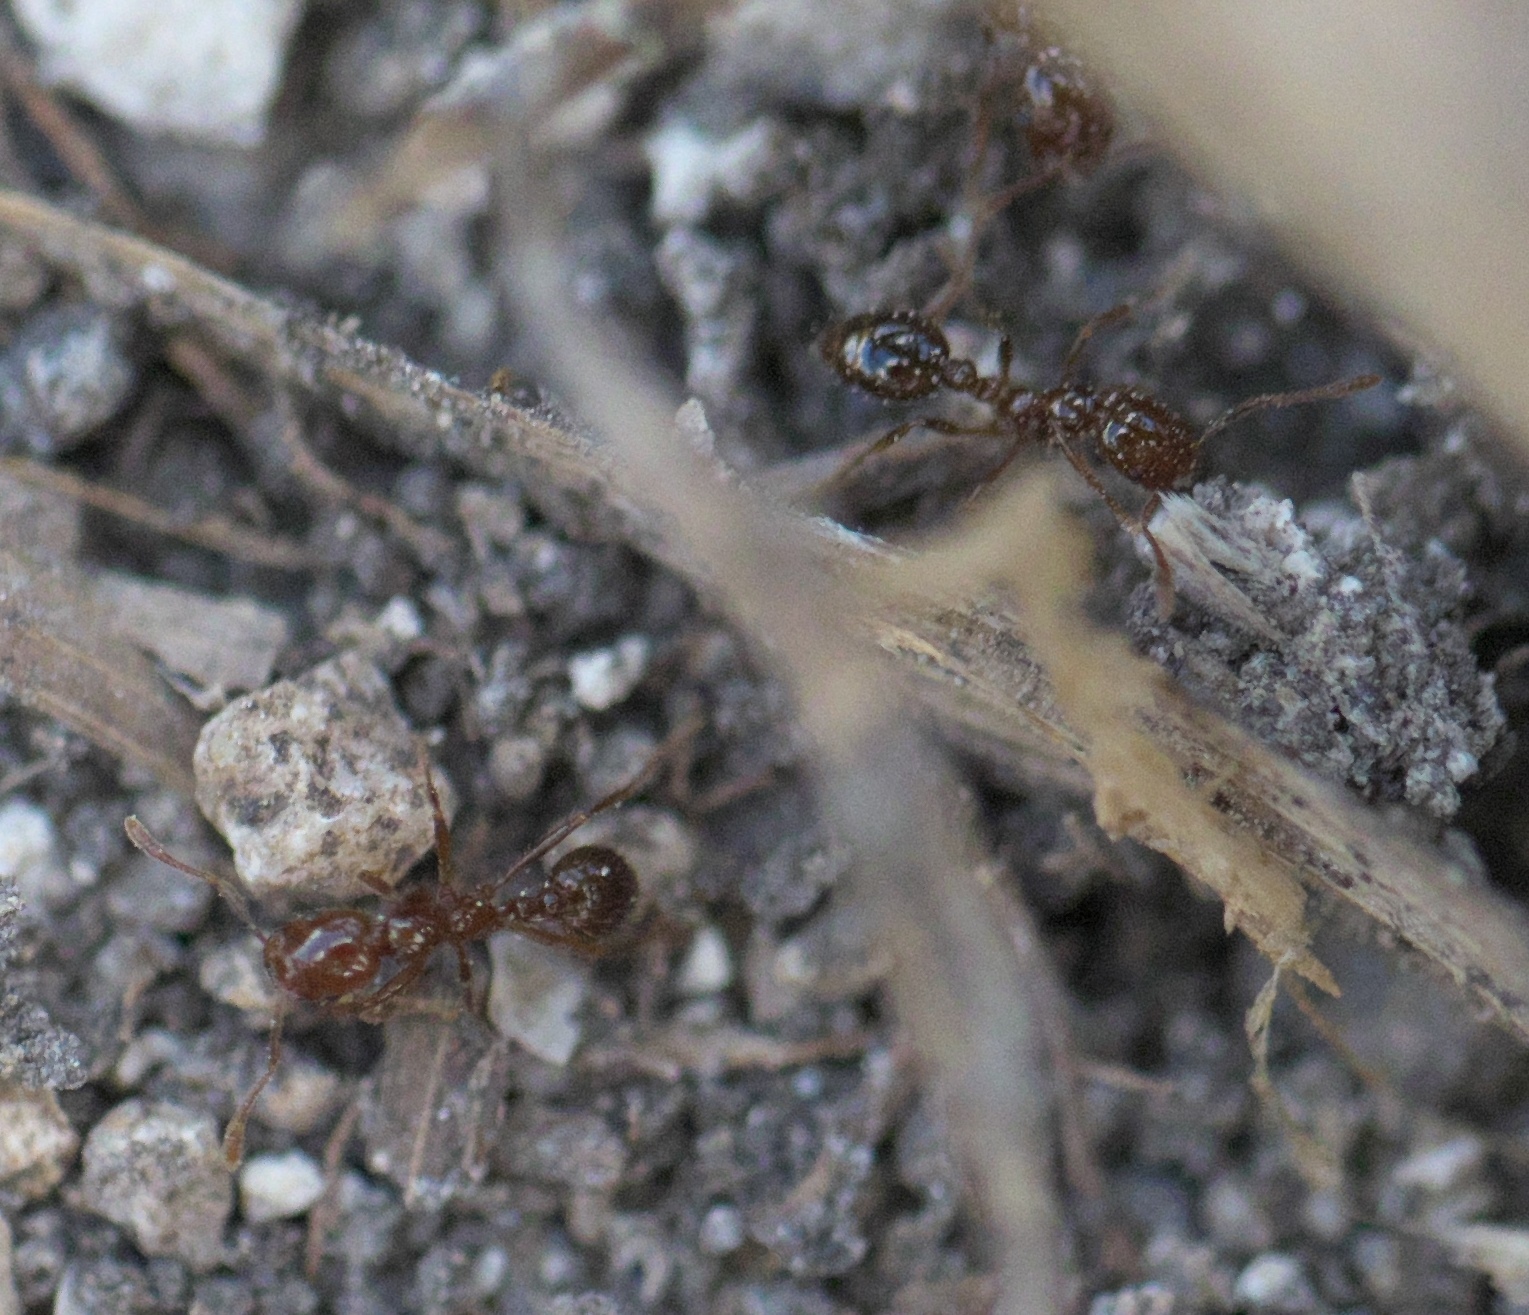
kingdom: Animalia
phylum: Arthropoda
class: Insecta
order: Hymenoptera
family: Formicidae
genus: Solenopsis
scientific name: Solenopsis invicta
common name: Red imported fire ant
